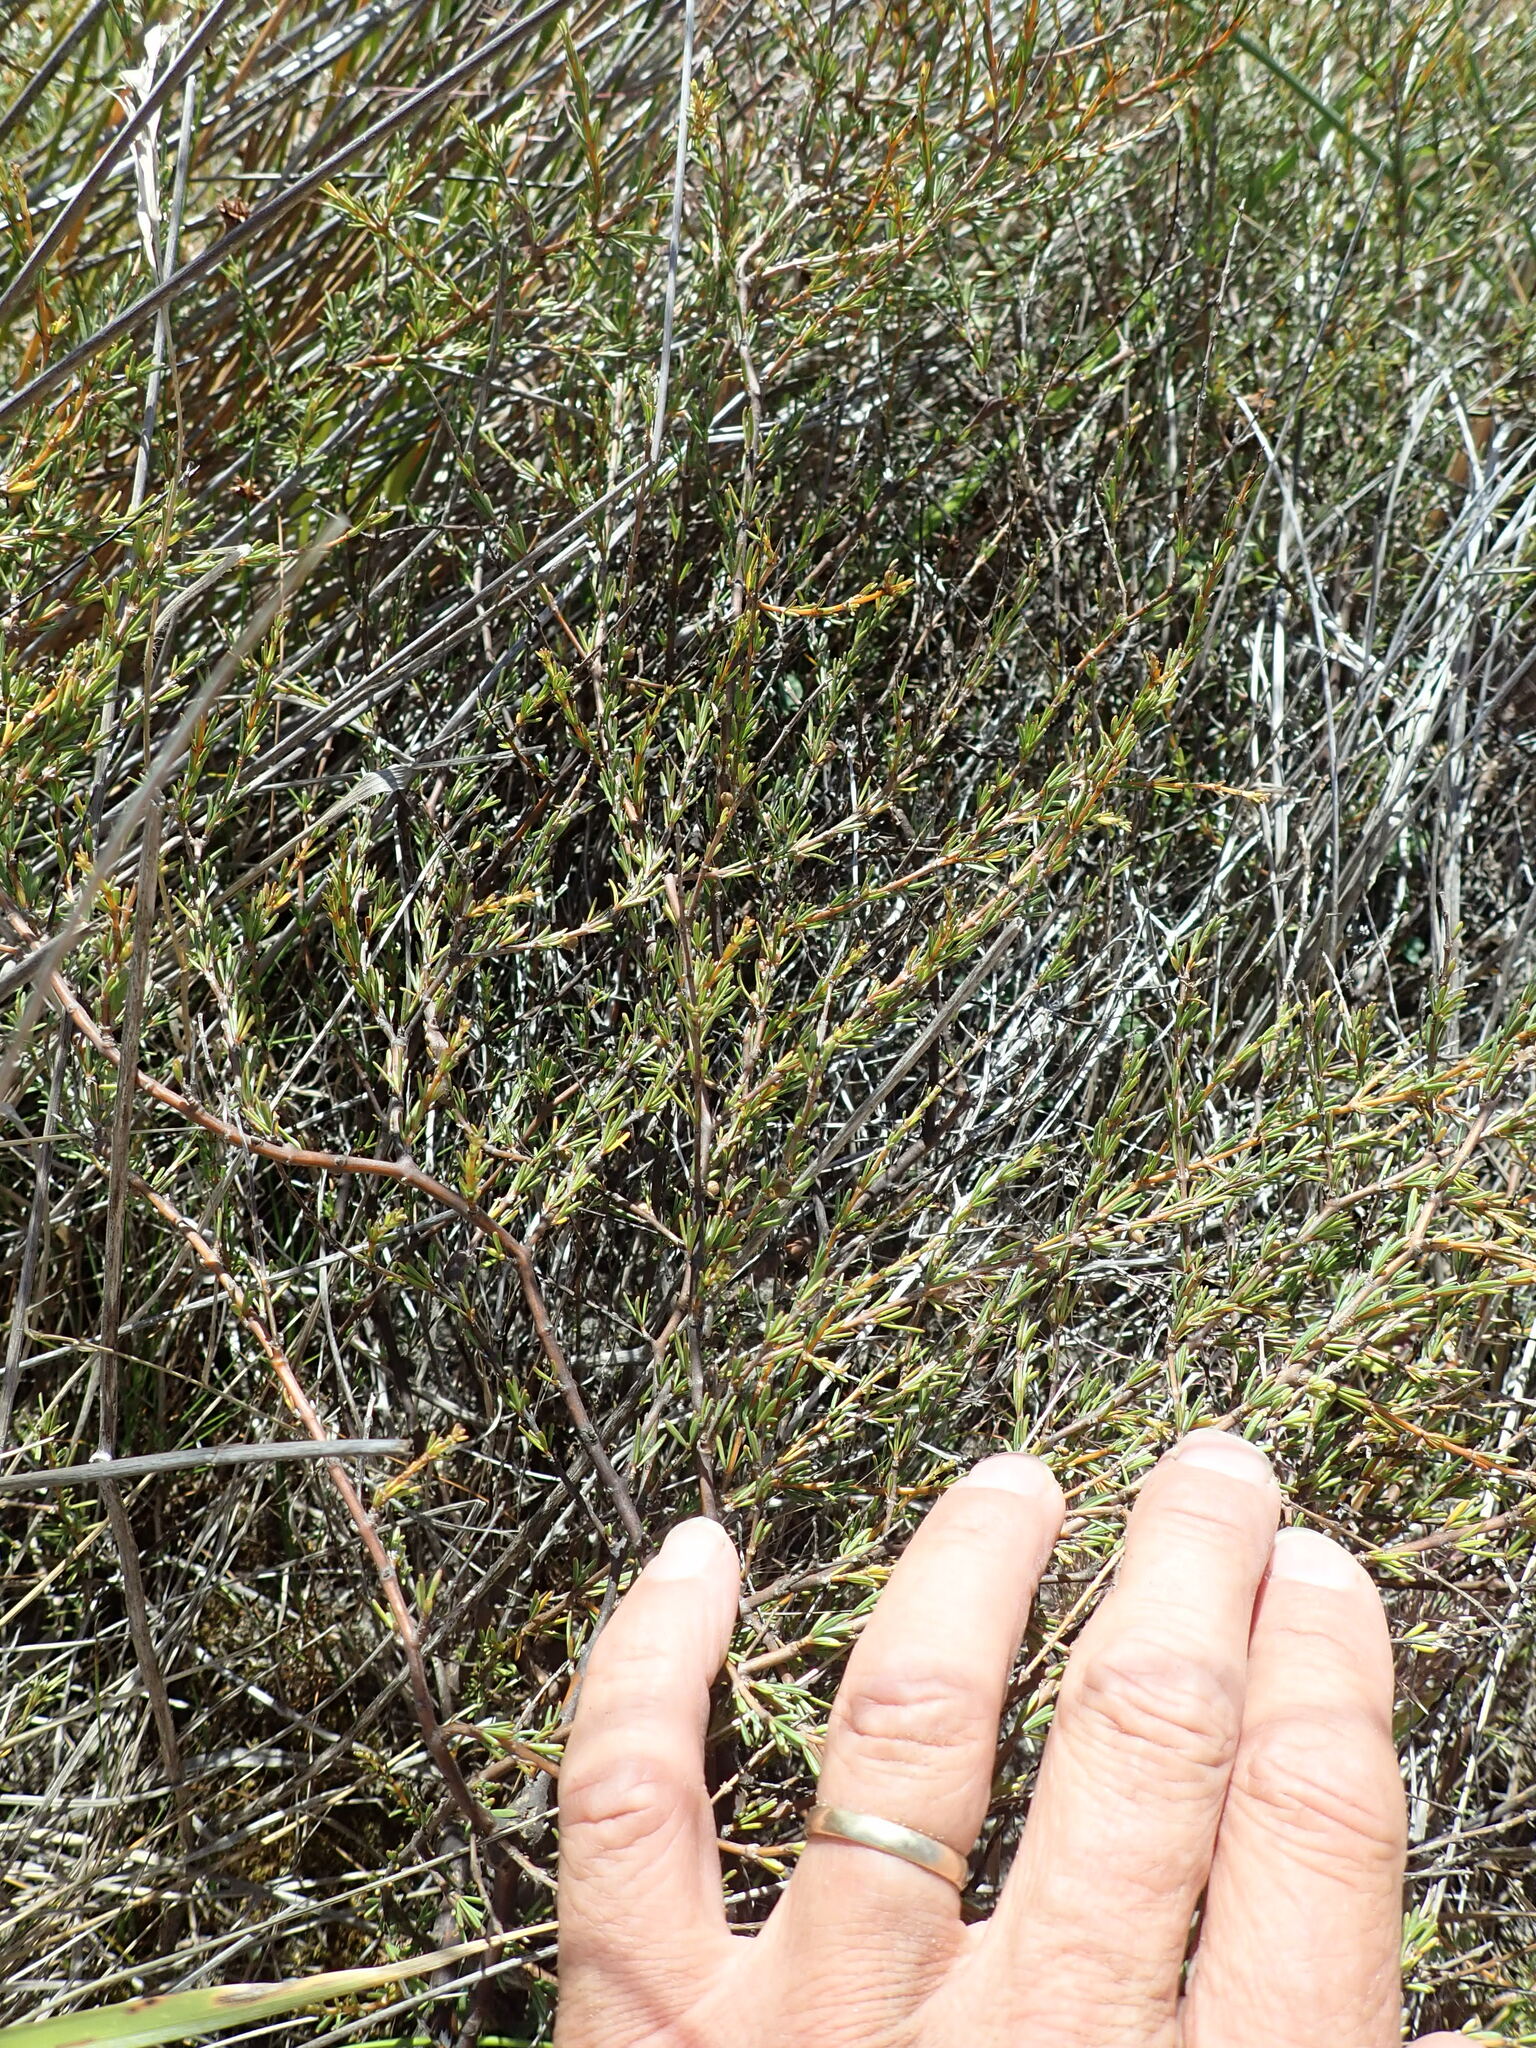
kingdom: Plantae
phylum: Tracheophyta
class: Magnoliopsida
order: Gentianales
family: Rubiaceae
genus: Coprosma
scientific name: Coprosma acerosa
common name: Sand coprosma
